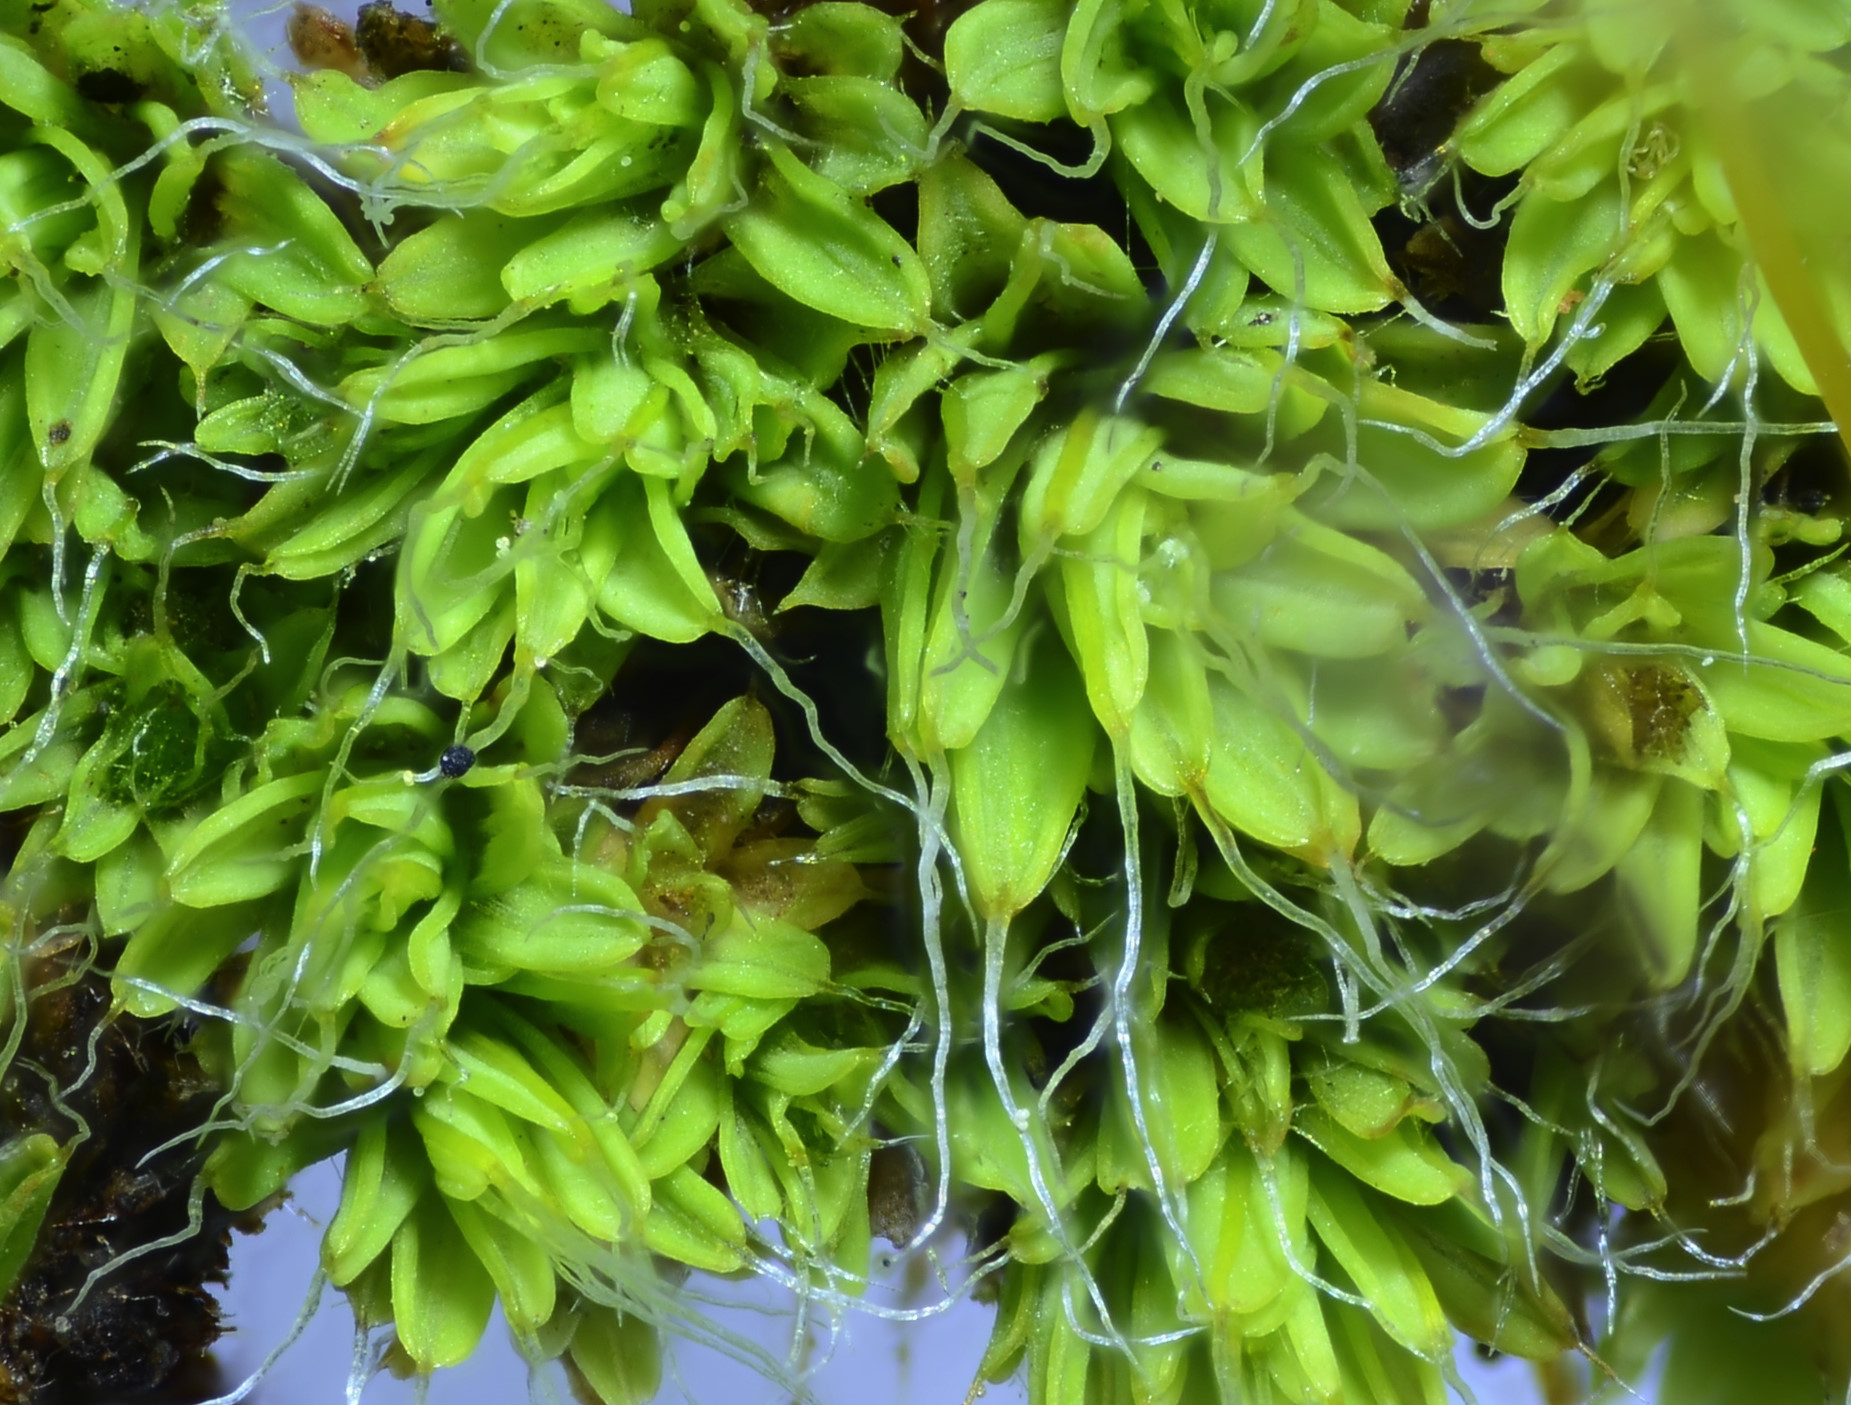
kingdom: Plantae
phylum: Bryophyta
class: Bryopsida
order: Pottiales
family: Pottiaceae
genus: Tortula
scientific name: Tortula muralis
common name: Wall screw-moss
